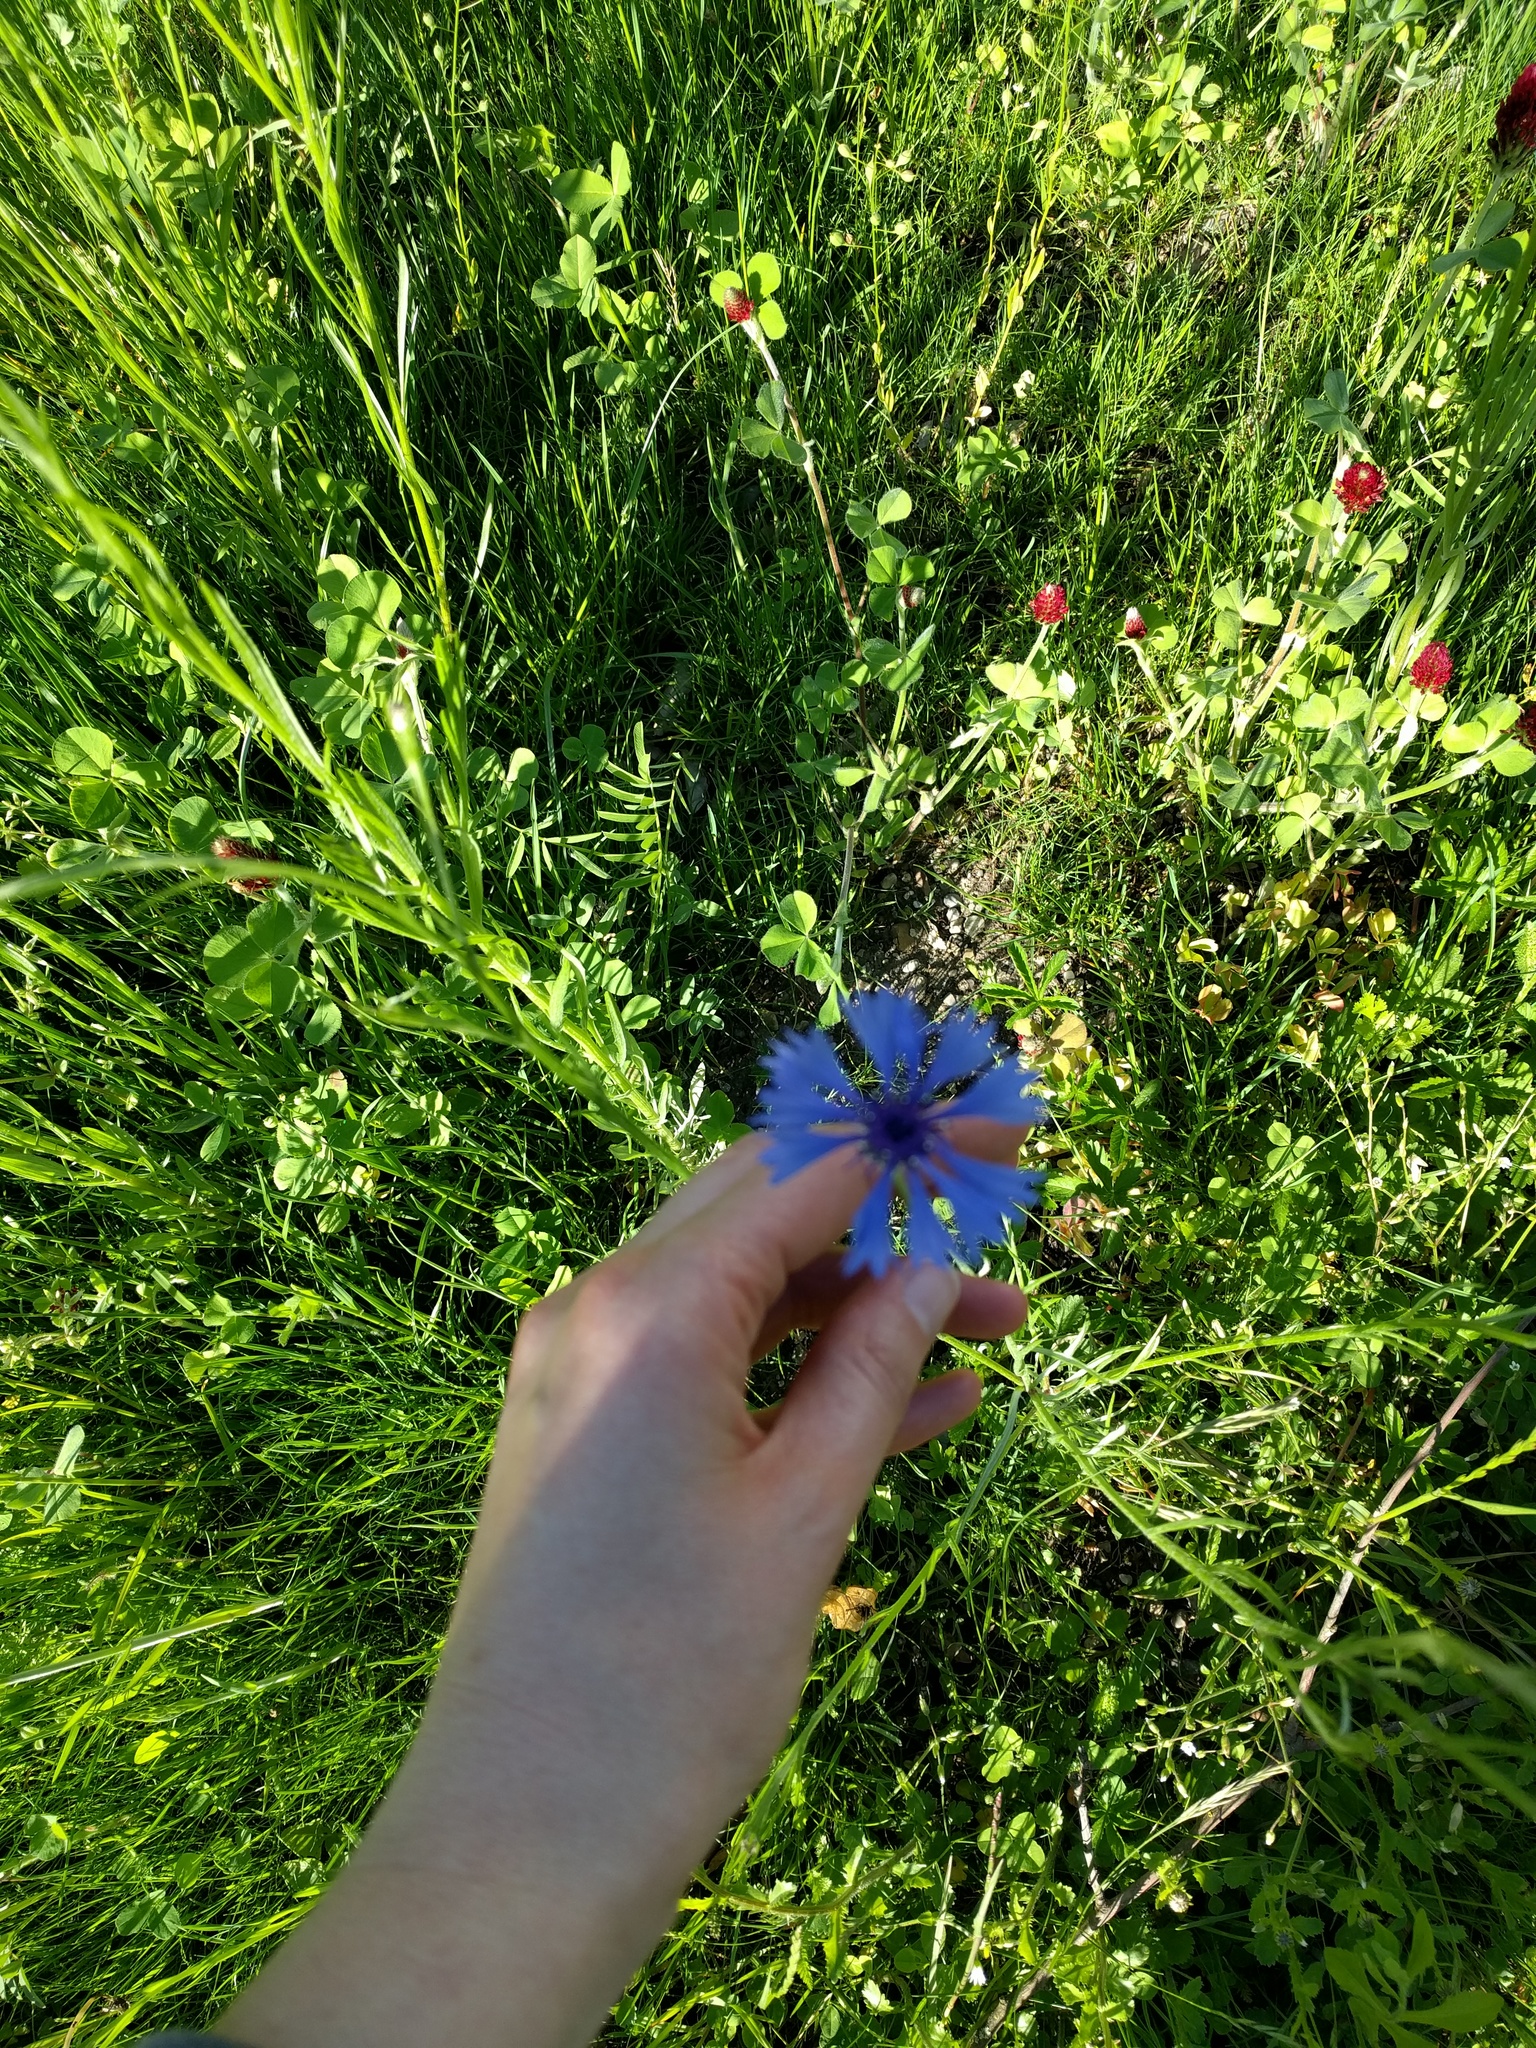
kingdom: Plantae
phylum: Tracheophyta
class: Magnoliopsida
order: Asterales
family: Asteraceae
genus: Centaurea
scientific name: Centaurea cyanus
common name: Cornflower
